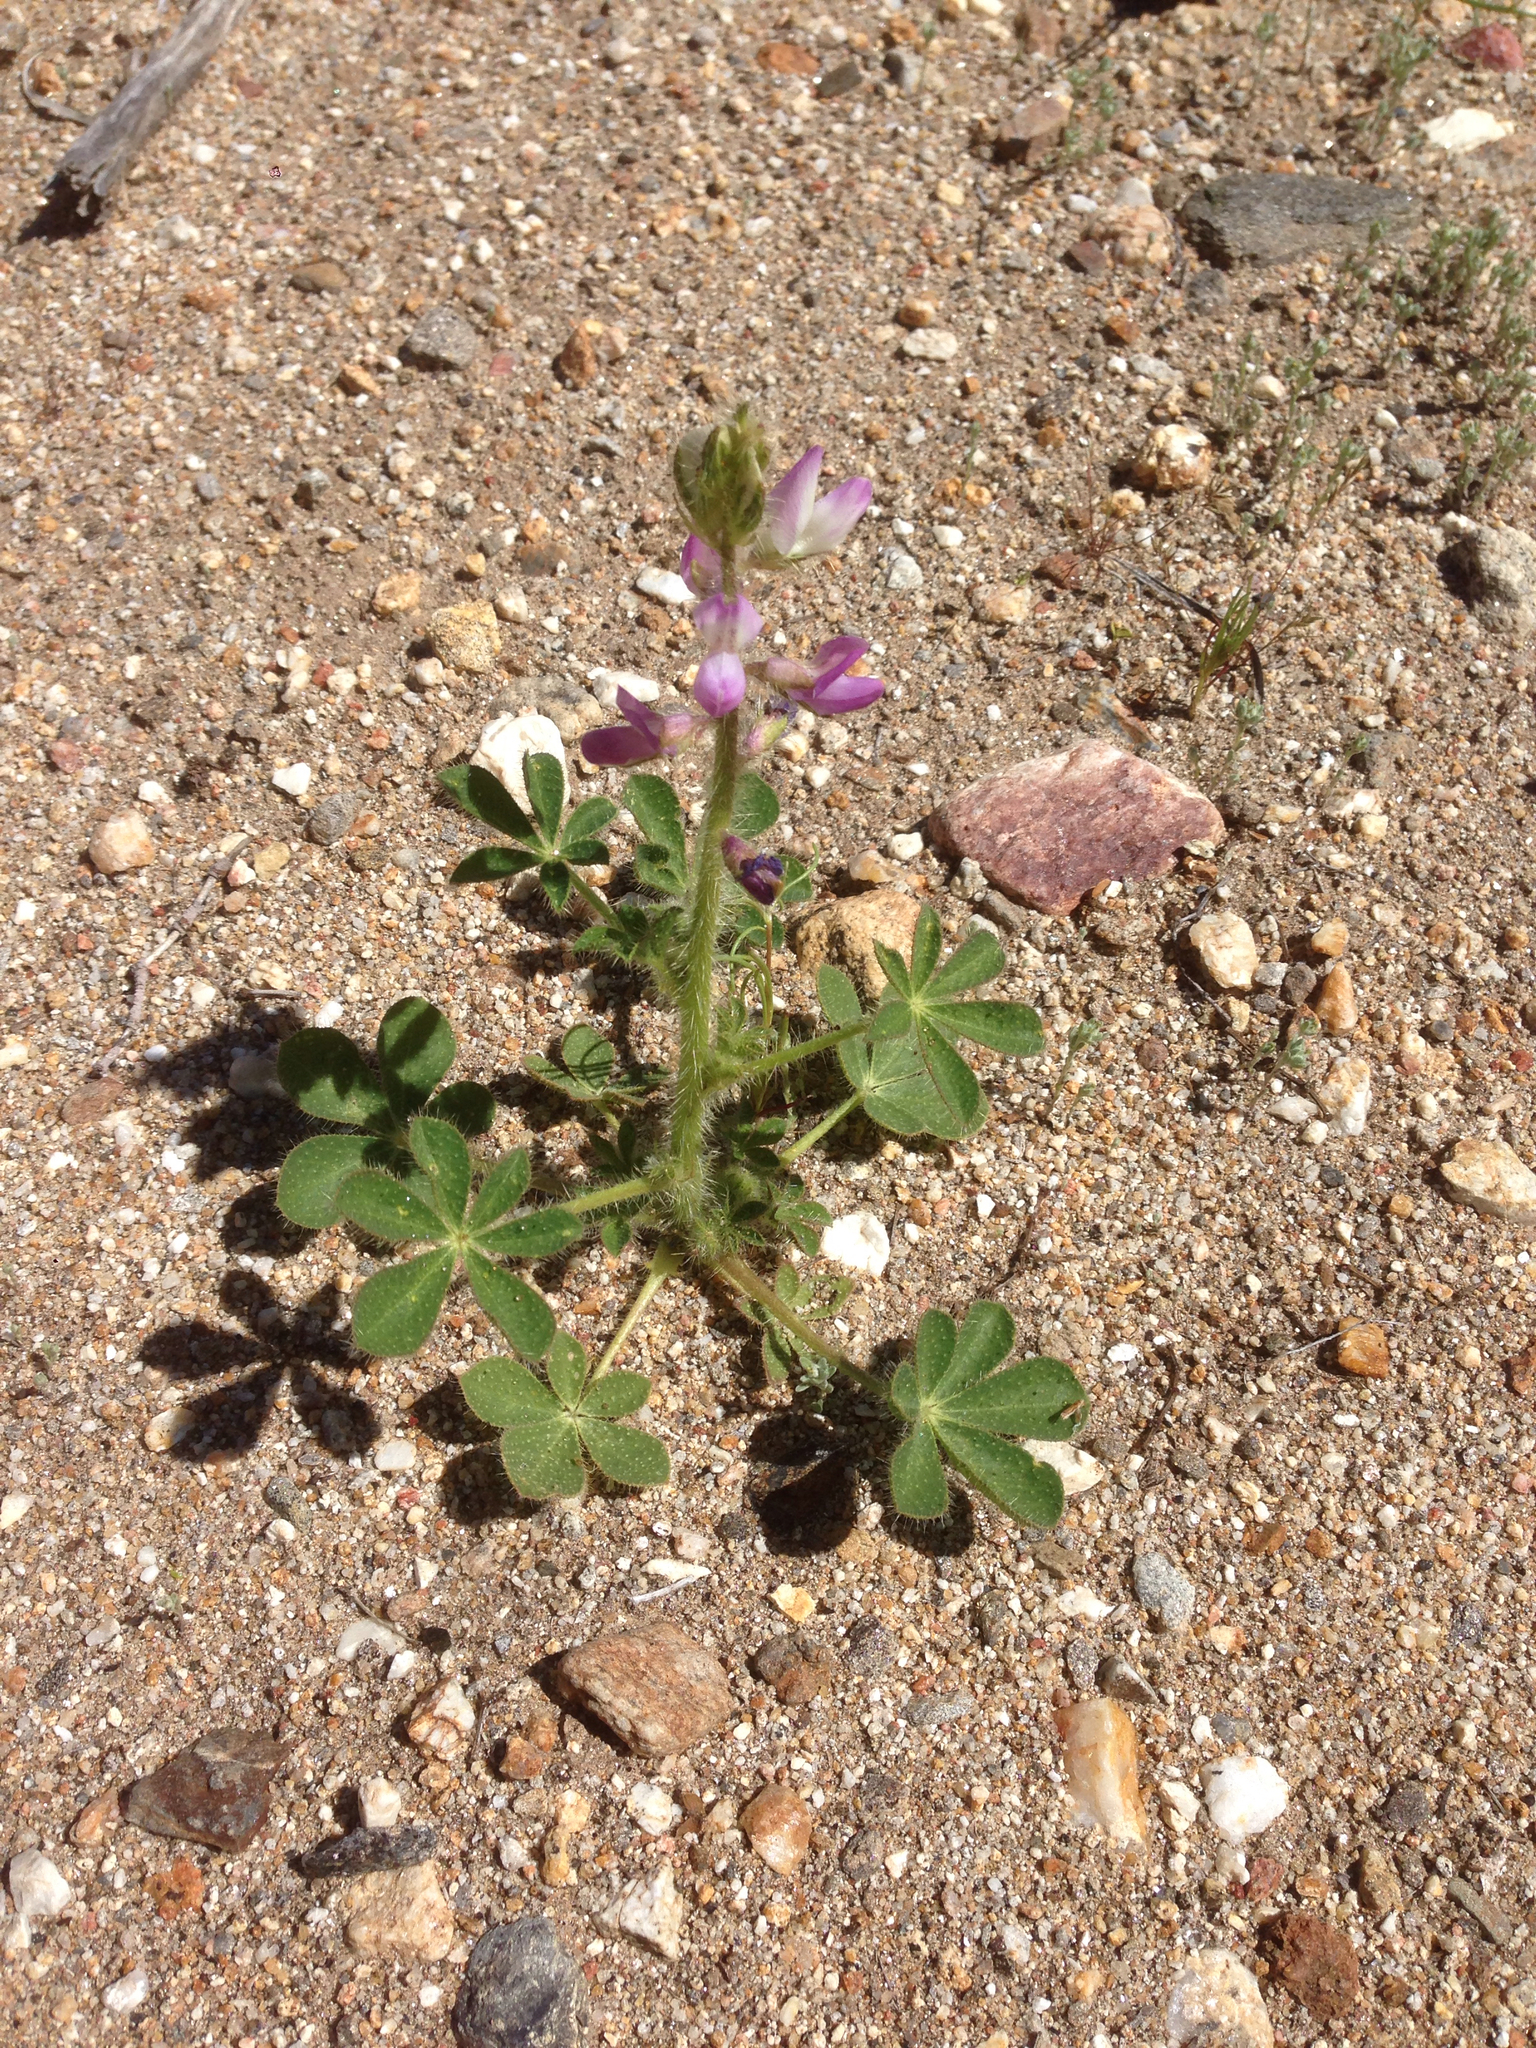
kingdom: Plantae
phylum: Tracheophyta
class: Magnoliopsida
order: Fabales
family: Fabaceae
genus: Lupinus
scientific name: Lupinus hirsutissimus
